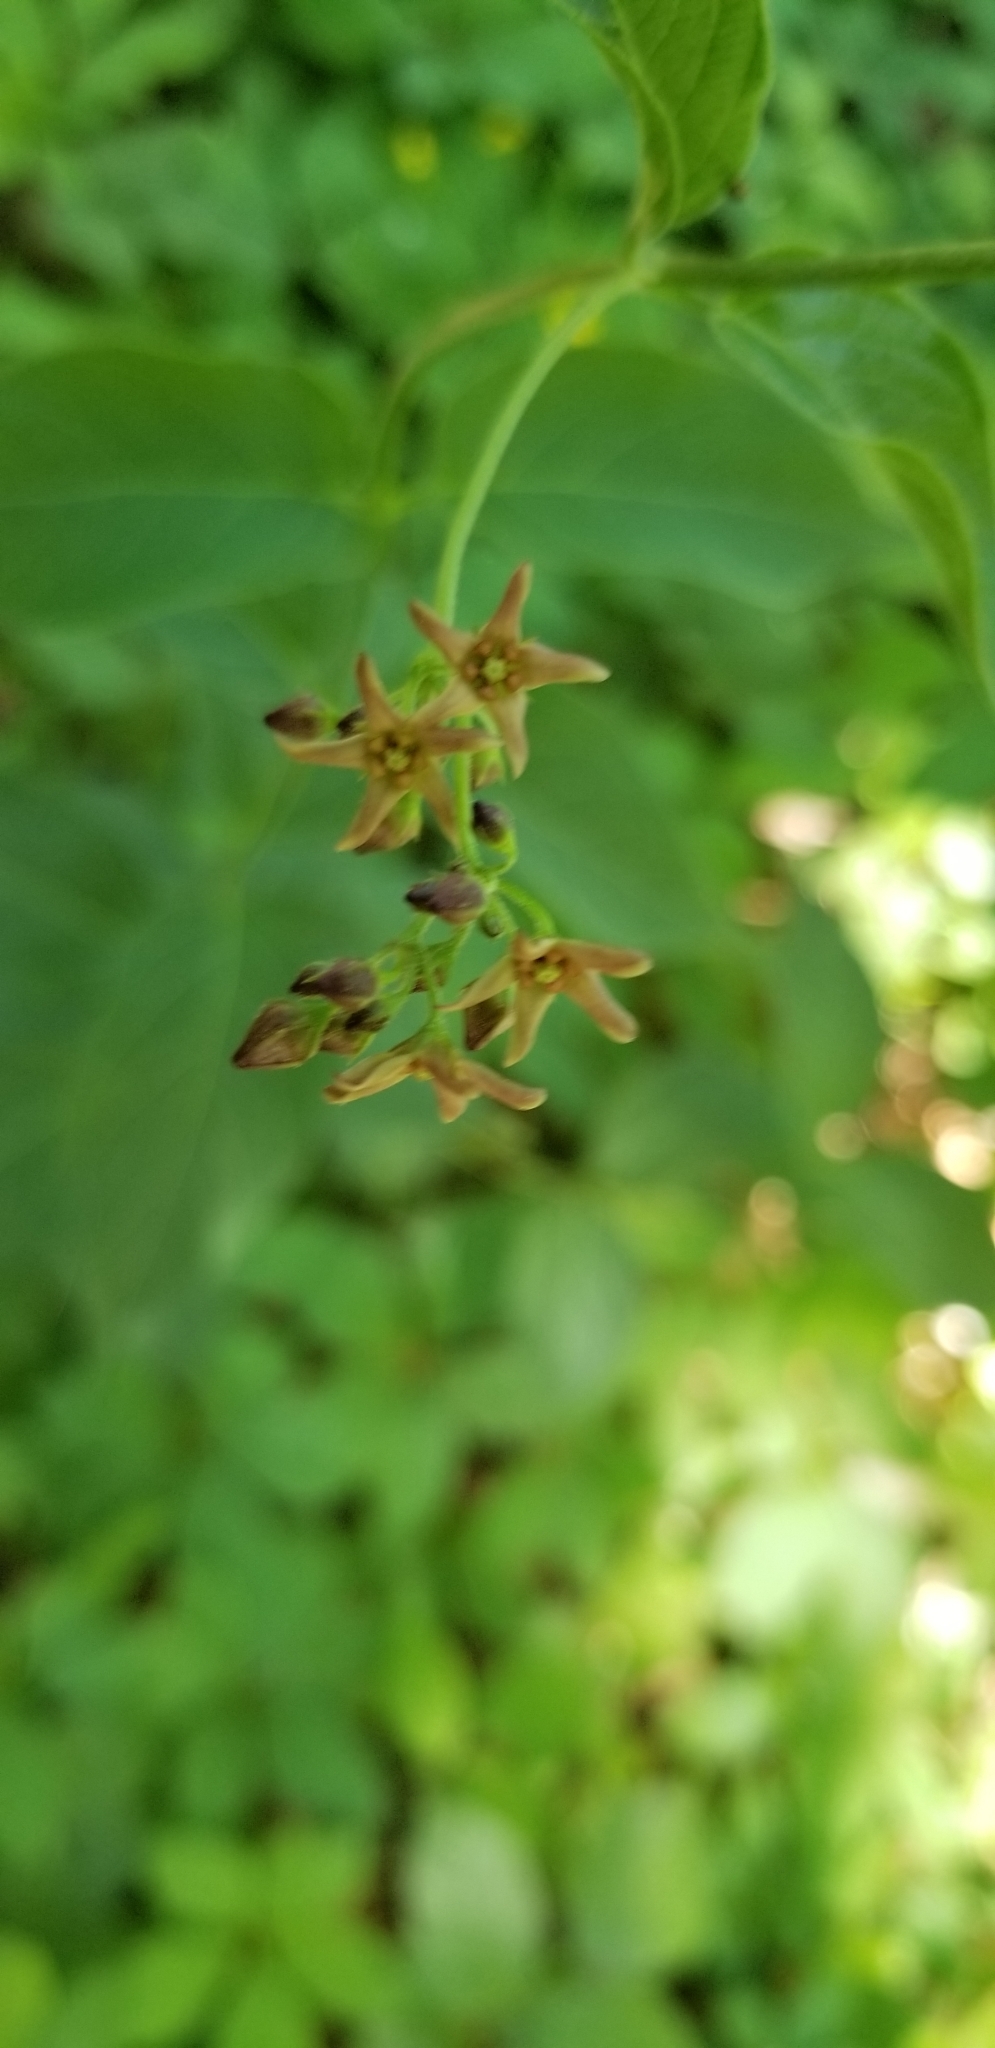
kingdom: Plantae
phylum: Tracheophyta
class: Magnoliopsida
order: Gentianales
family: Apocynaceae
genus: Vincetoxicum
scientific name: Vincetoxicum rossicum
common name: Dog-strangling vine
